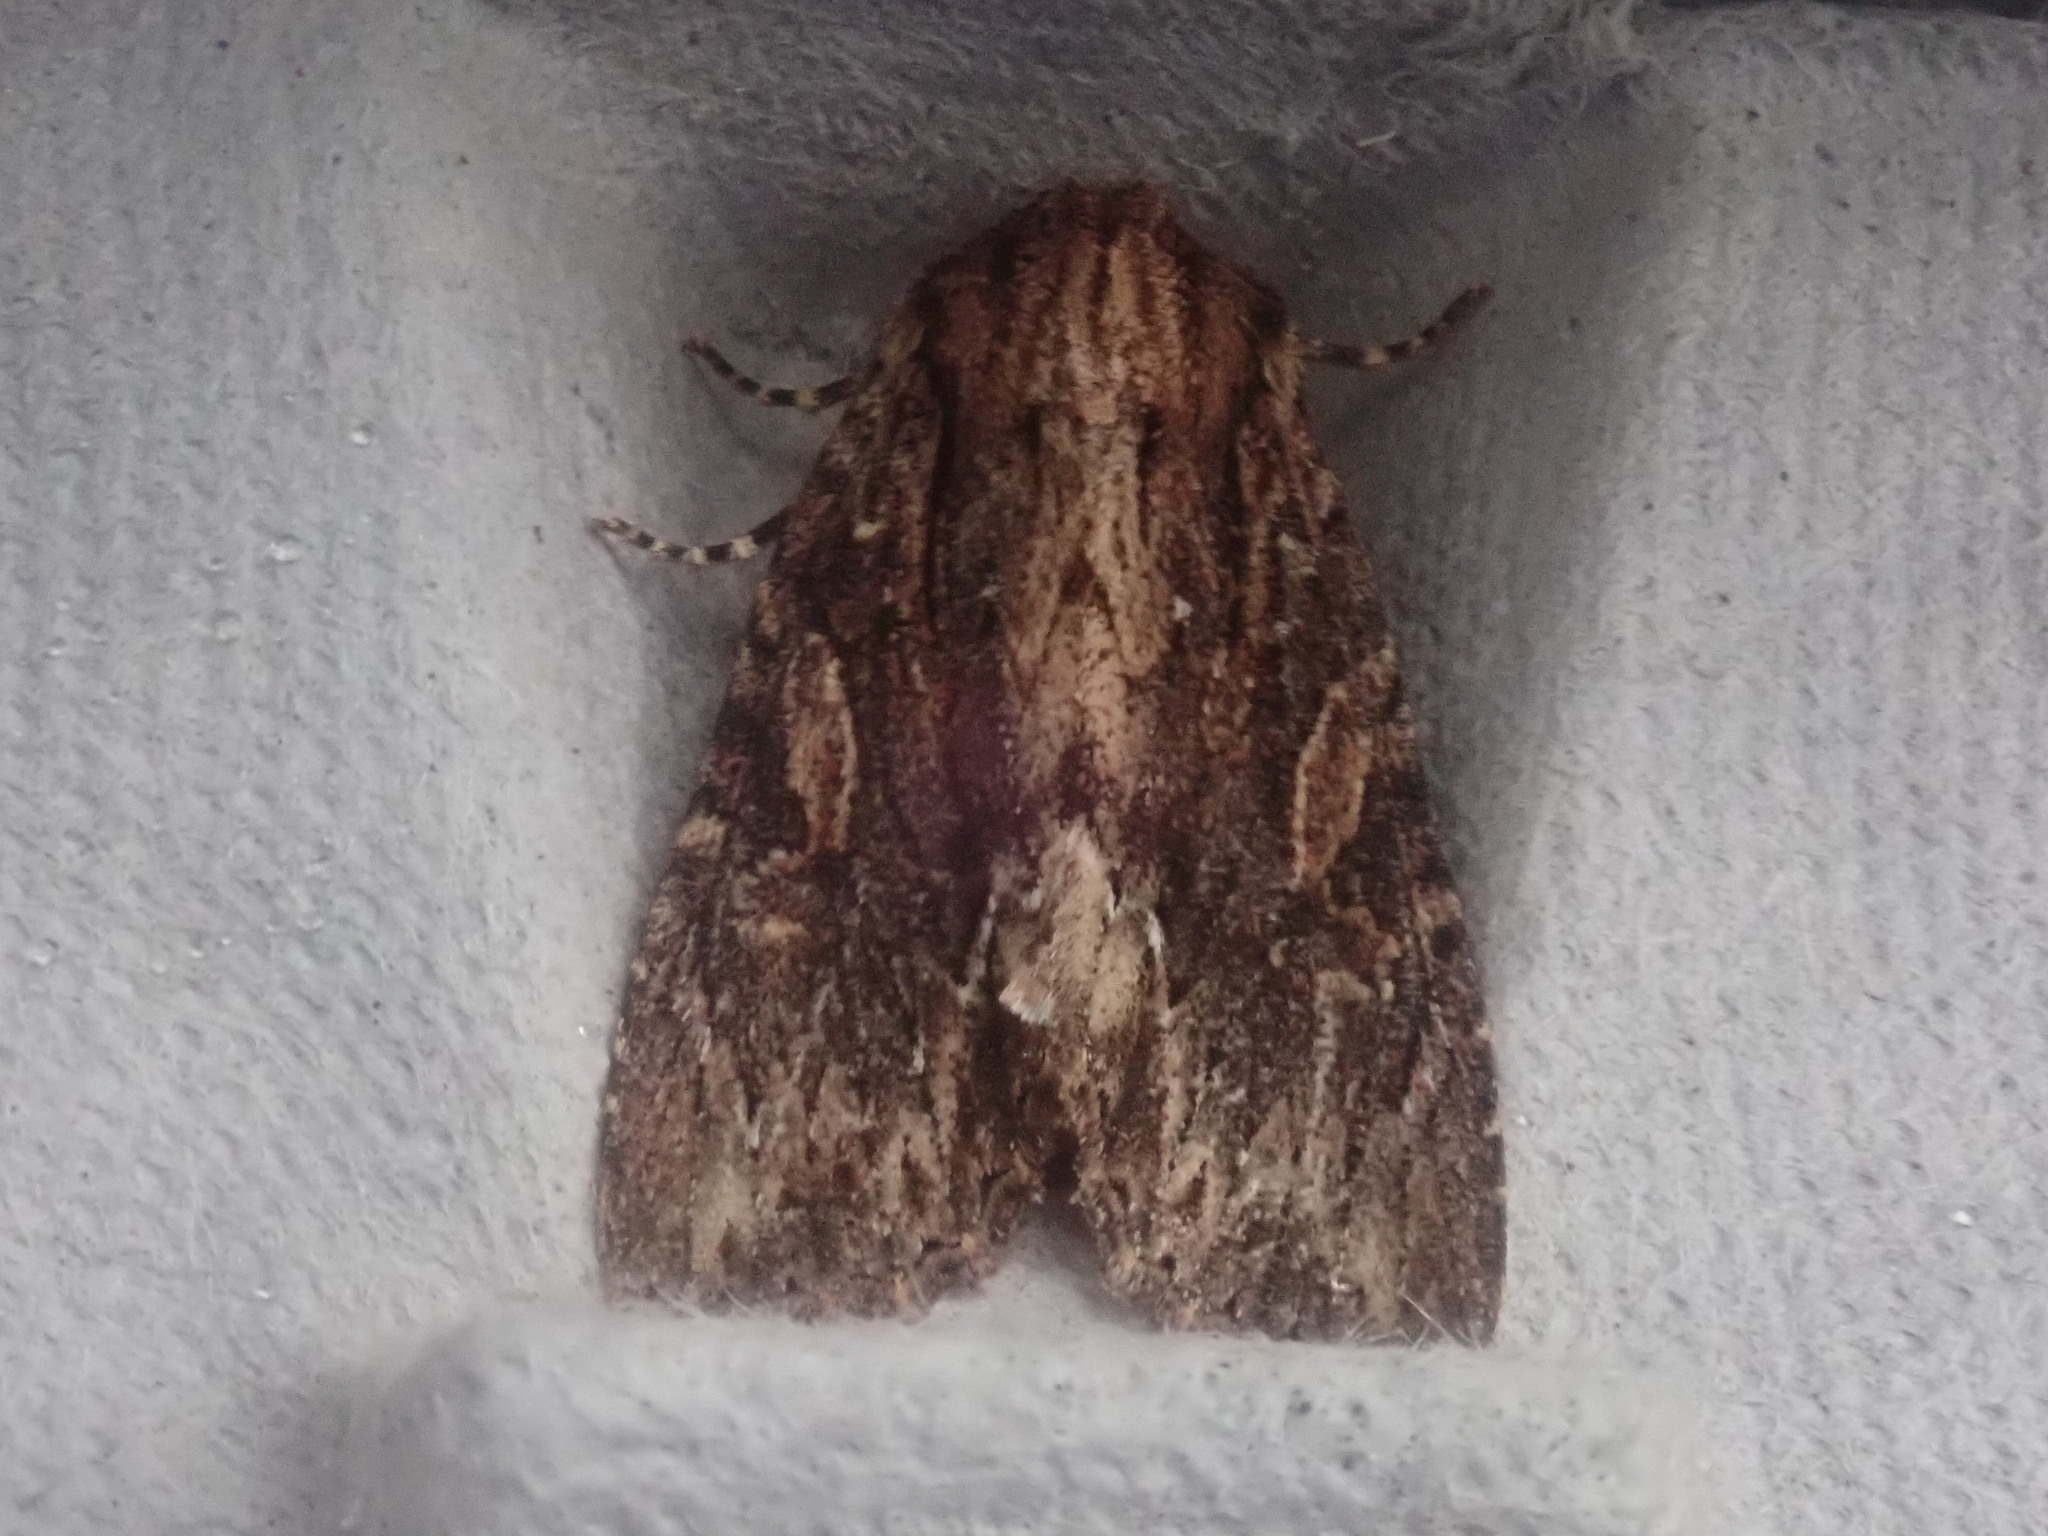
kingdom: Animalia
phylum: Arthropoda
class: Insecta
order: Lepidoptera
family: Noctuidae
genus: Achatia
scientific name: Achatia confusa
